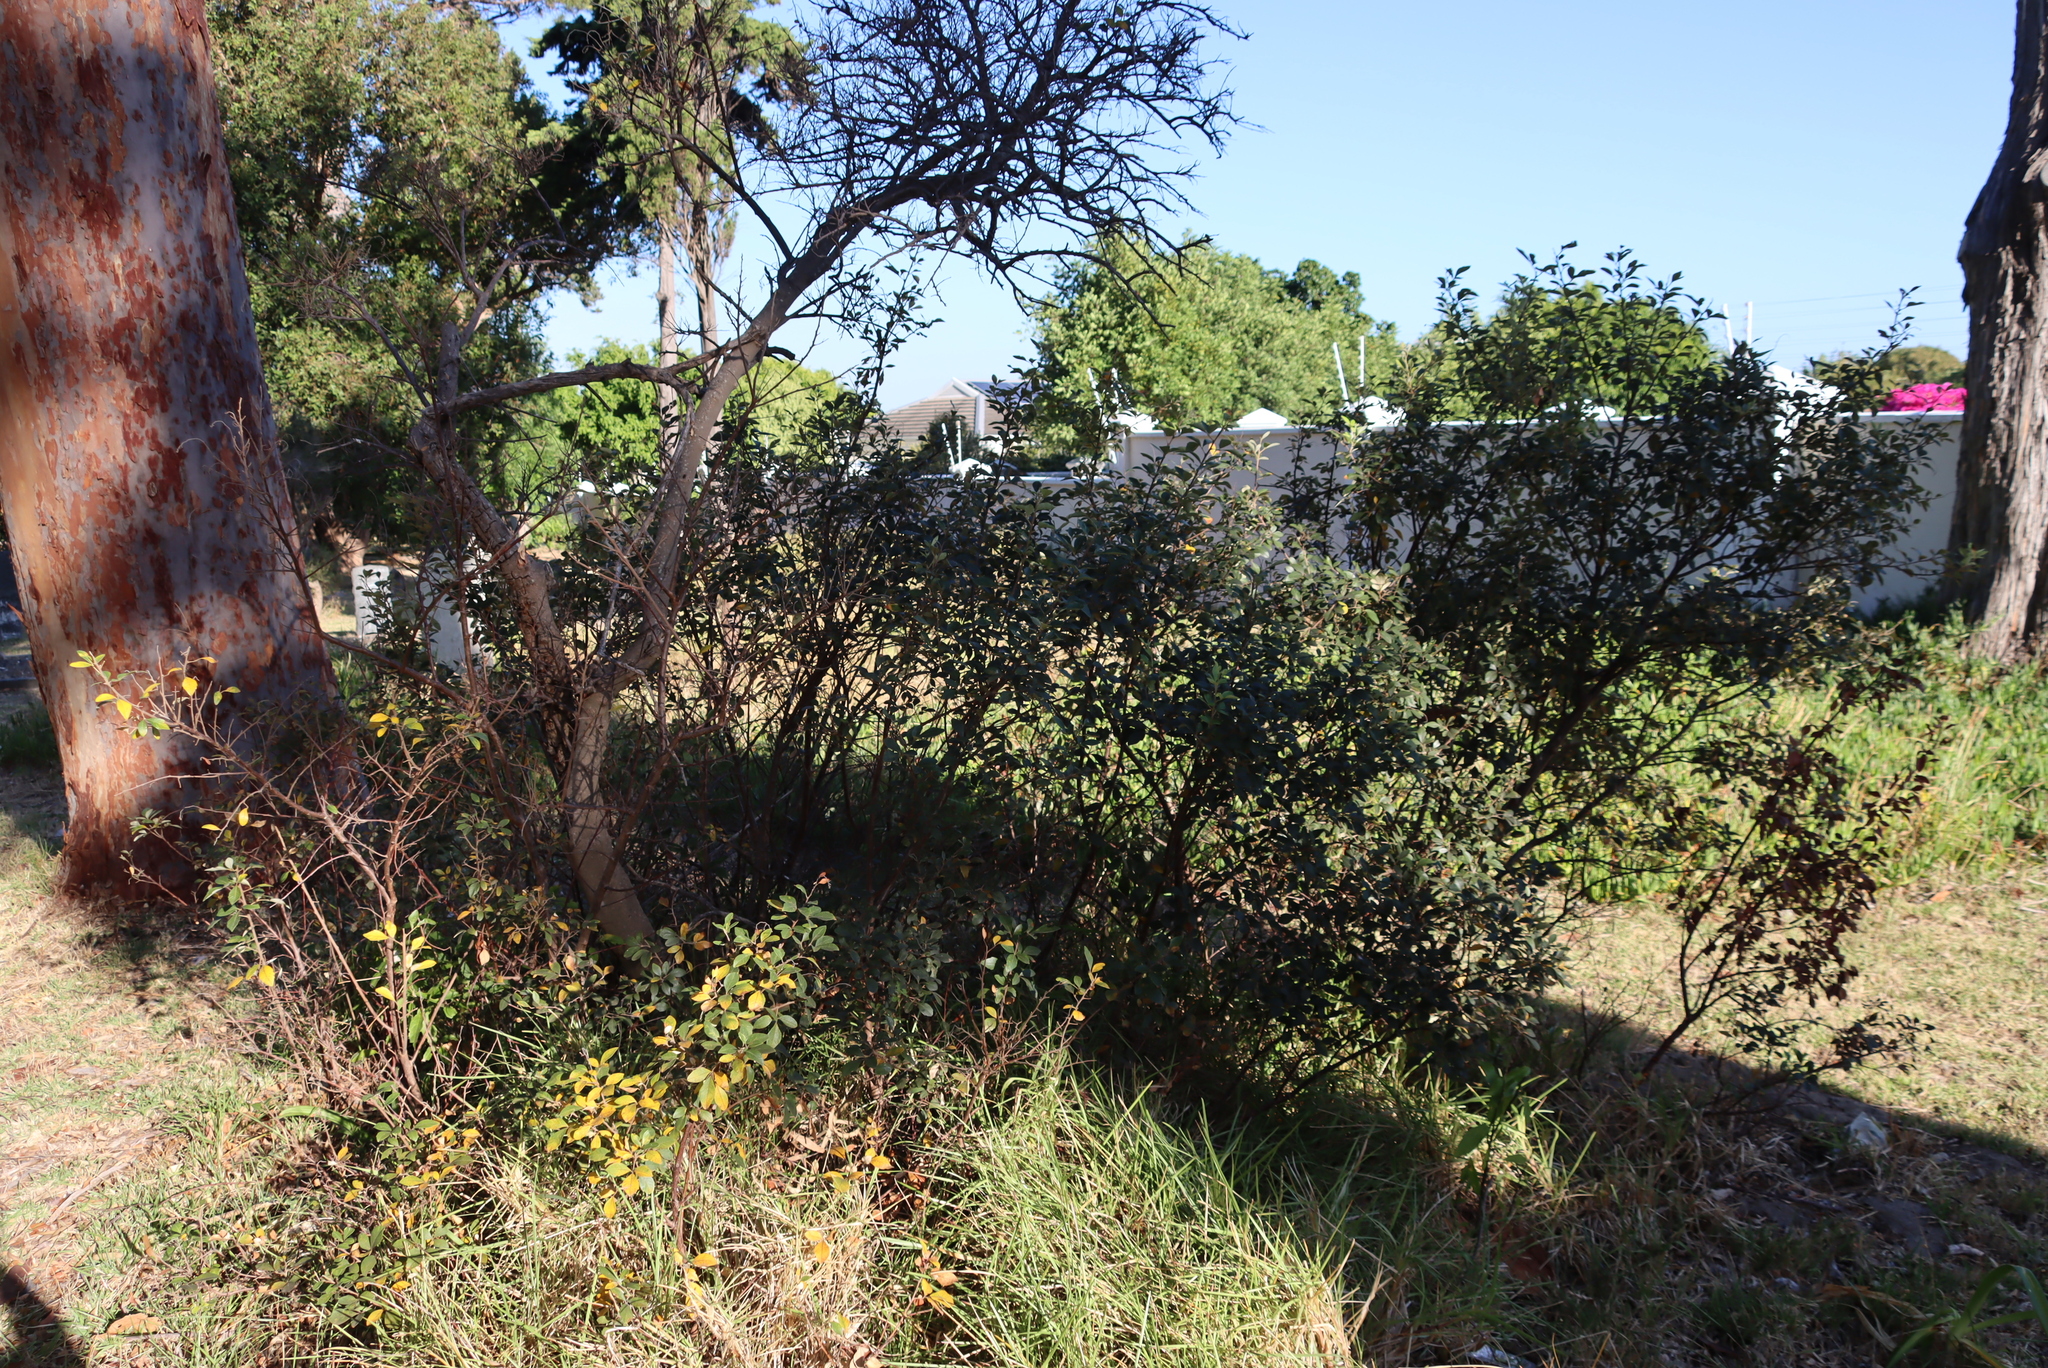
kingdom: Plantae
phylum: Tracheophyta
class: Magnoliopsida
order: Sapindales
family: Anacardiaceae
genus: Searsia
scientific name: Searsia tomentosa
